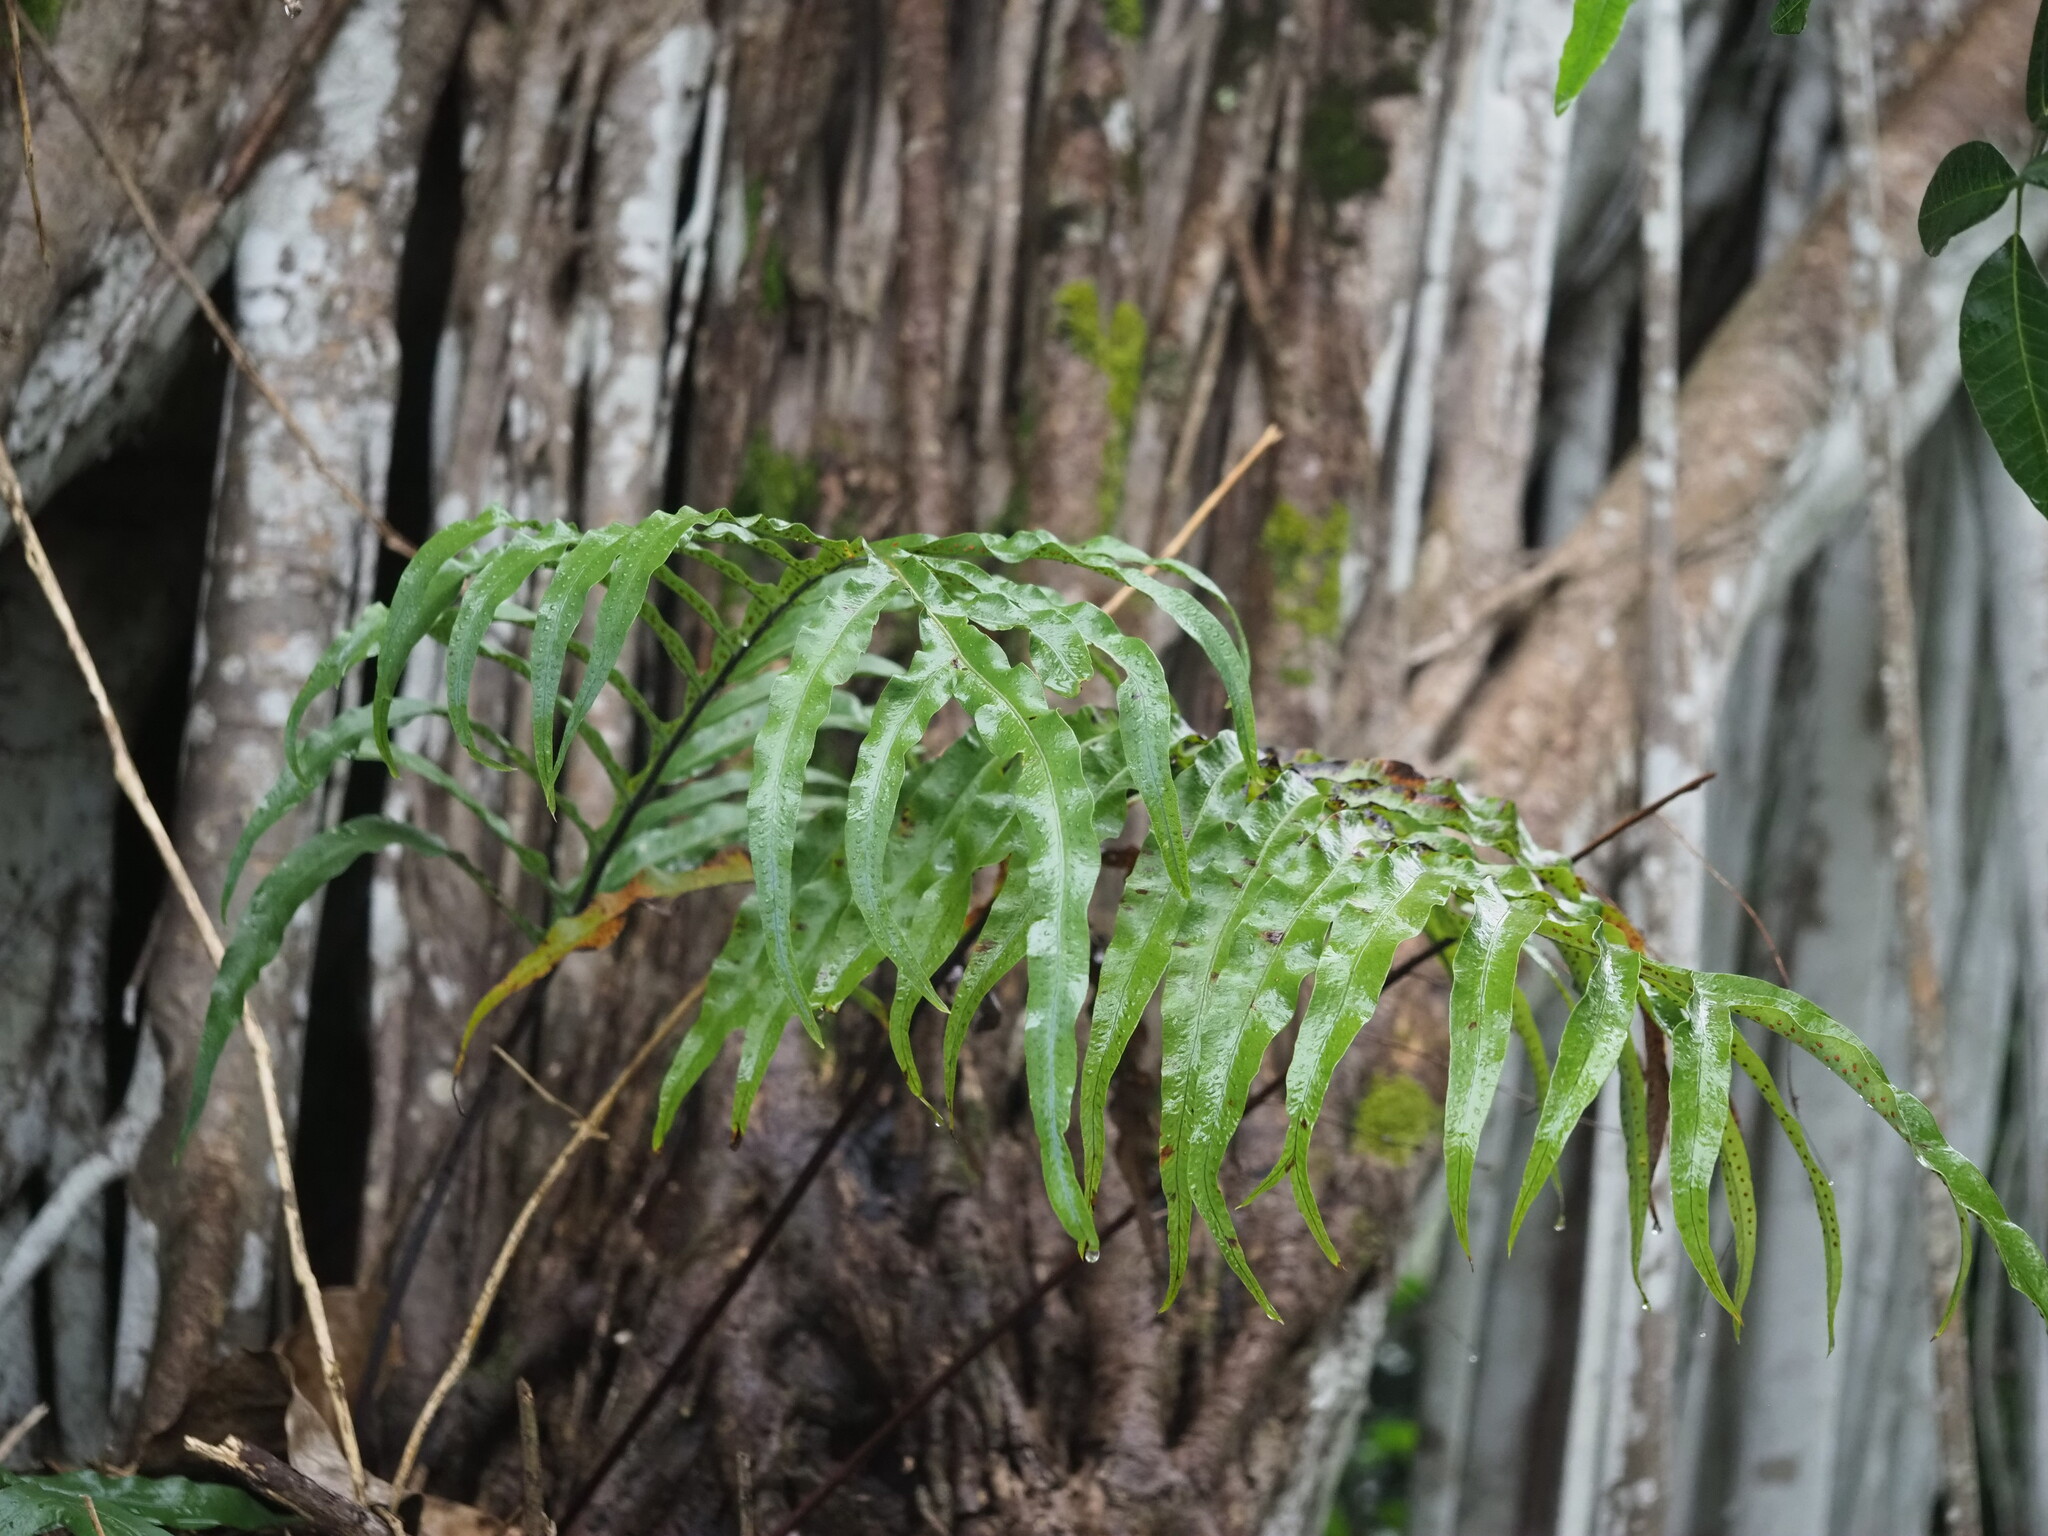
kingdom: Plantae
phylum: Tracheophyta
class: Polypodiopsida
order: Polypodiales
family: Polypodiaceae
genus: Phlebodium
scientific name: Phlebodium aureum
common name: Gold-foot fern
